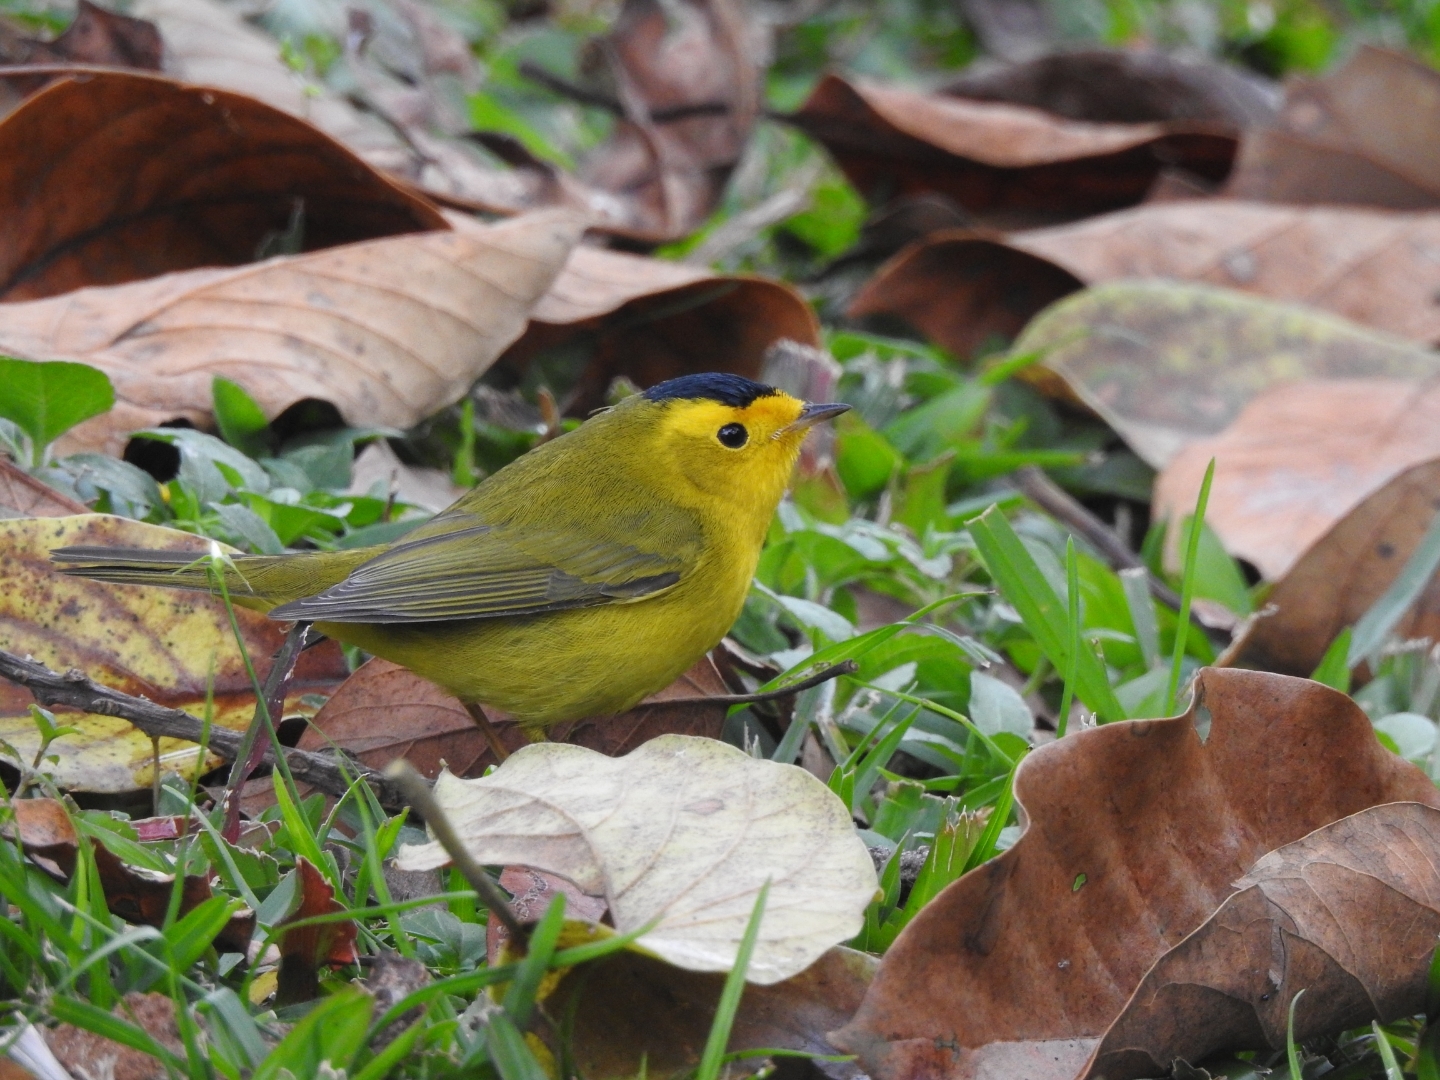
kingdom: Animalia
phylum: Chordata
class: Aves
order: Passeriformes
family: Parulidae
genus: Cardellina
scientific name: Cardellina pusilla
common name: Wilson's warbler
